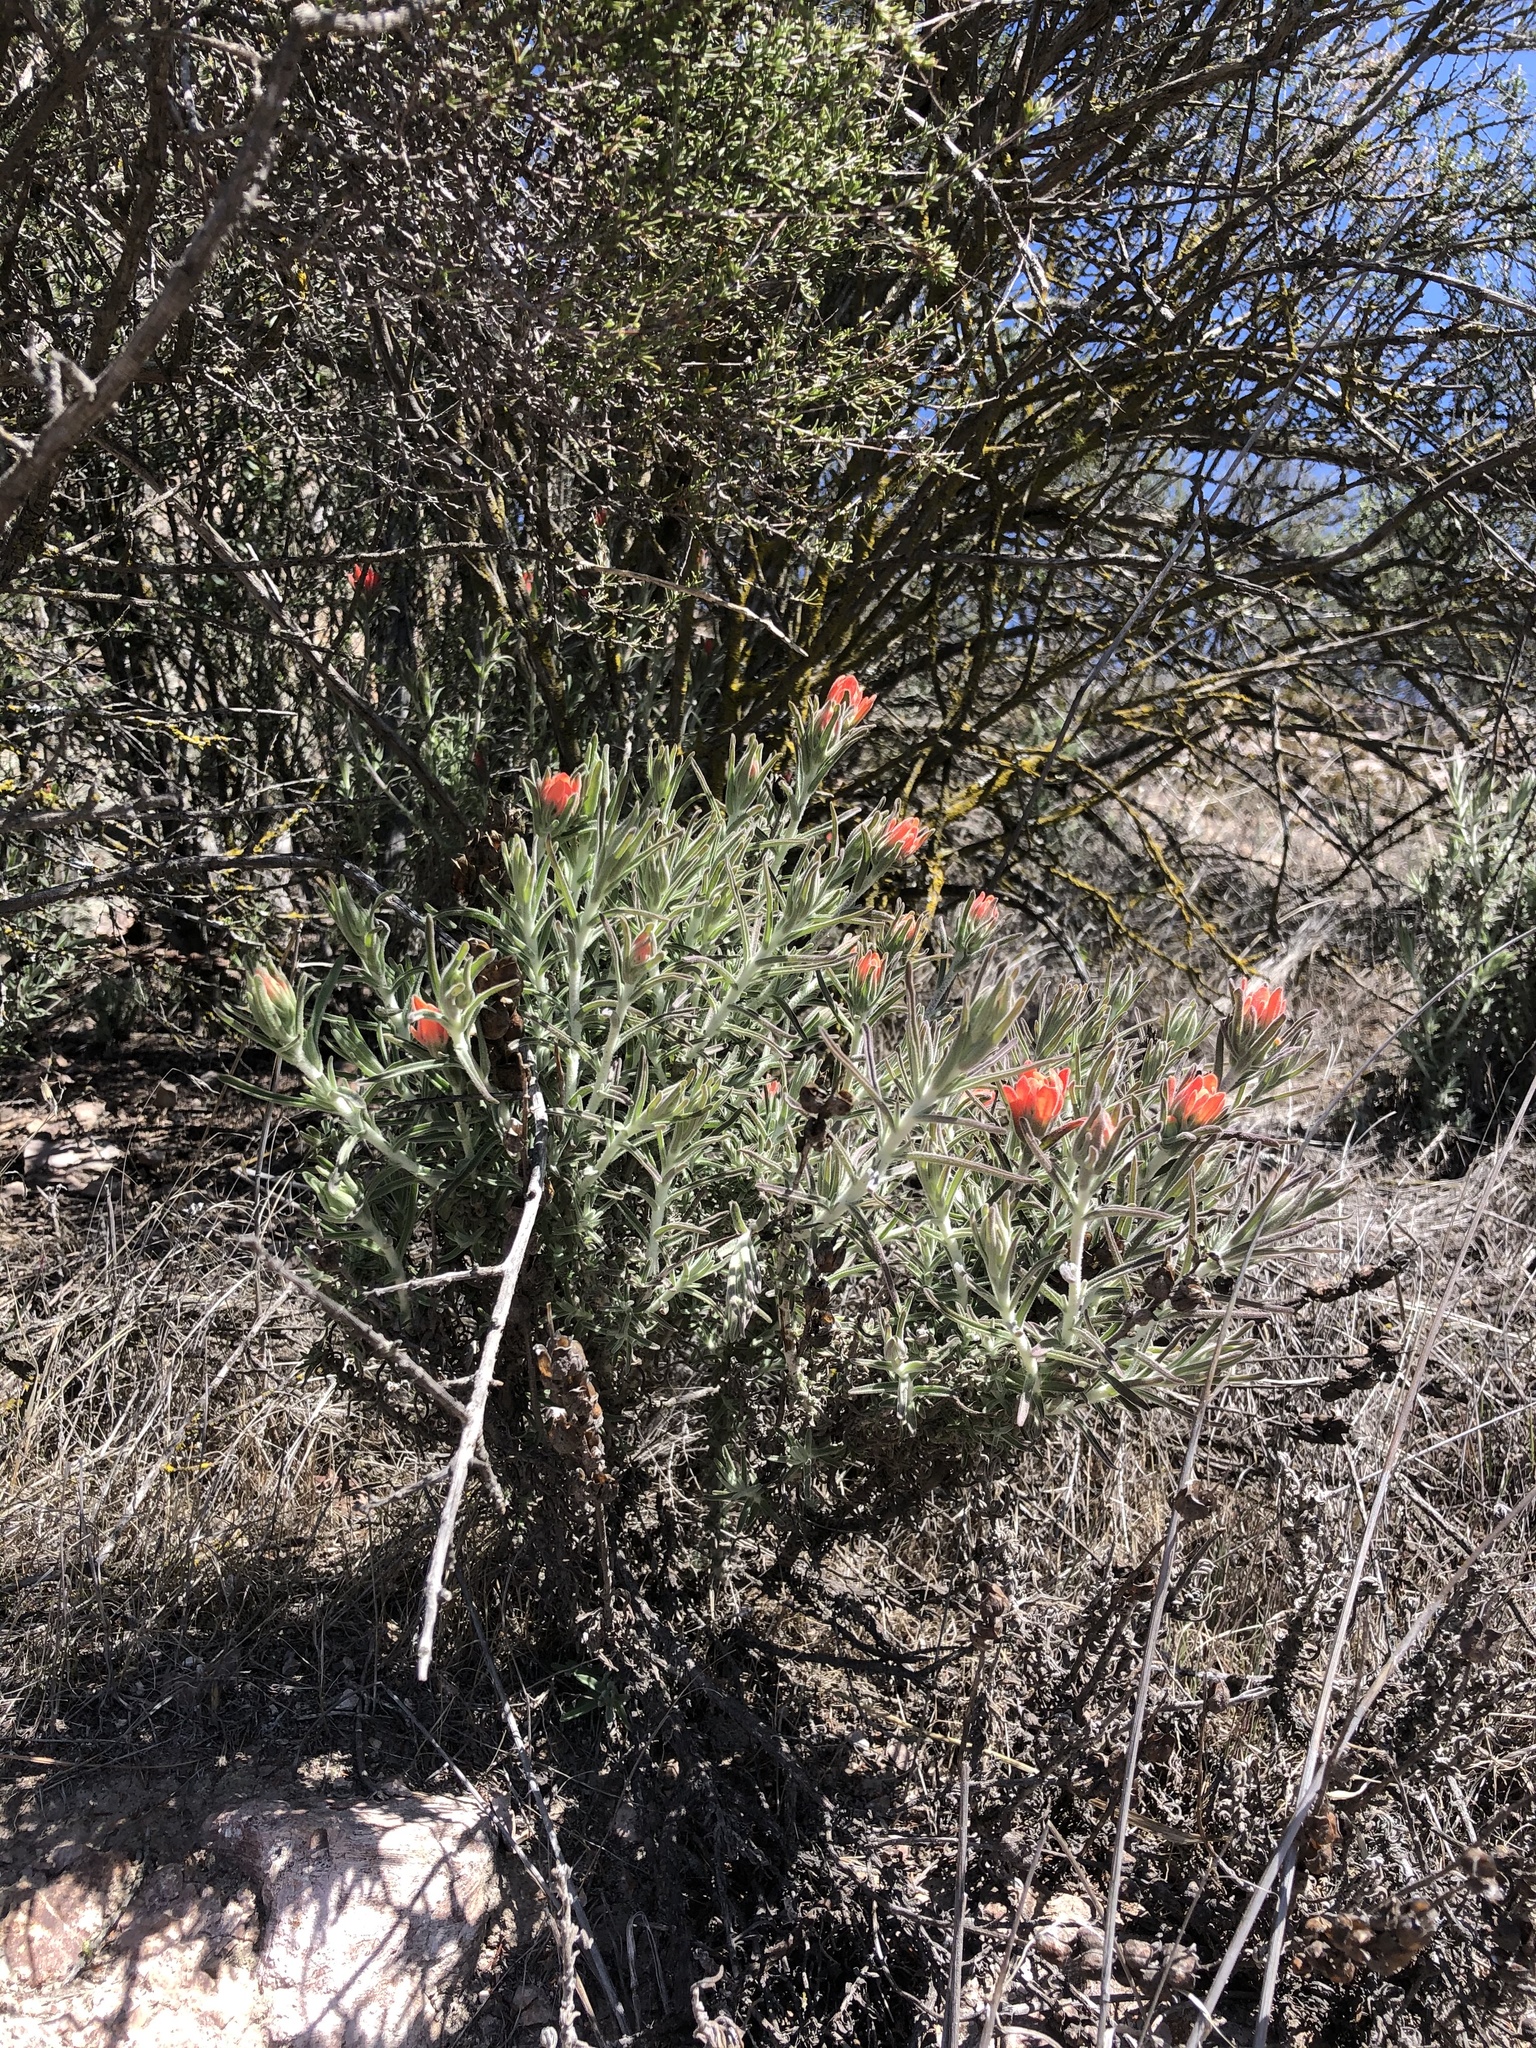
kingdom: Plantae
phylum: Tracheophyta
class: Magnoliopsida
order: Lamiales
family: Orobanchaceae
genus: Castilleja
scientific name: Castilleja foliolosa
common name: Woolly indian paintbrush
